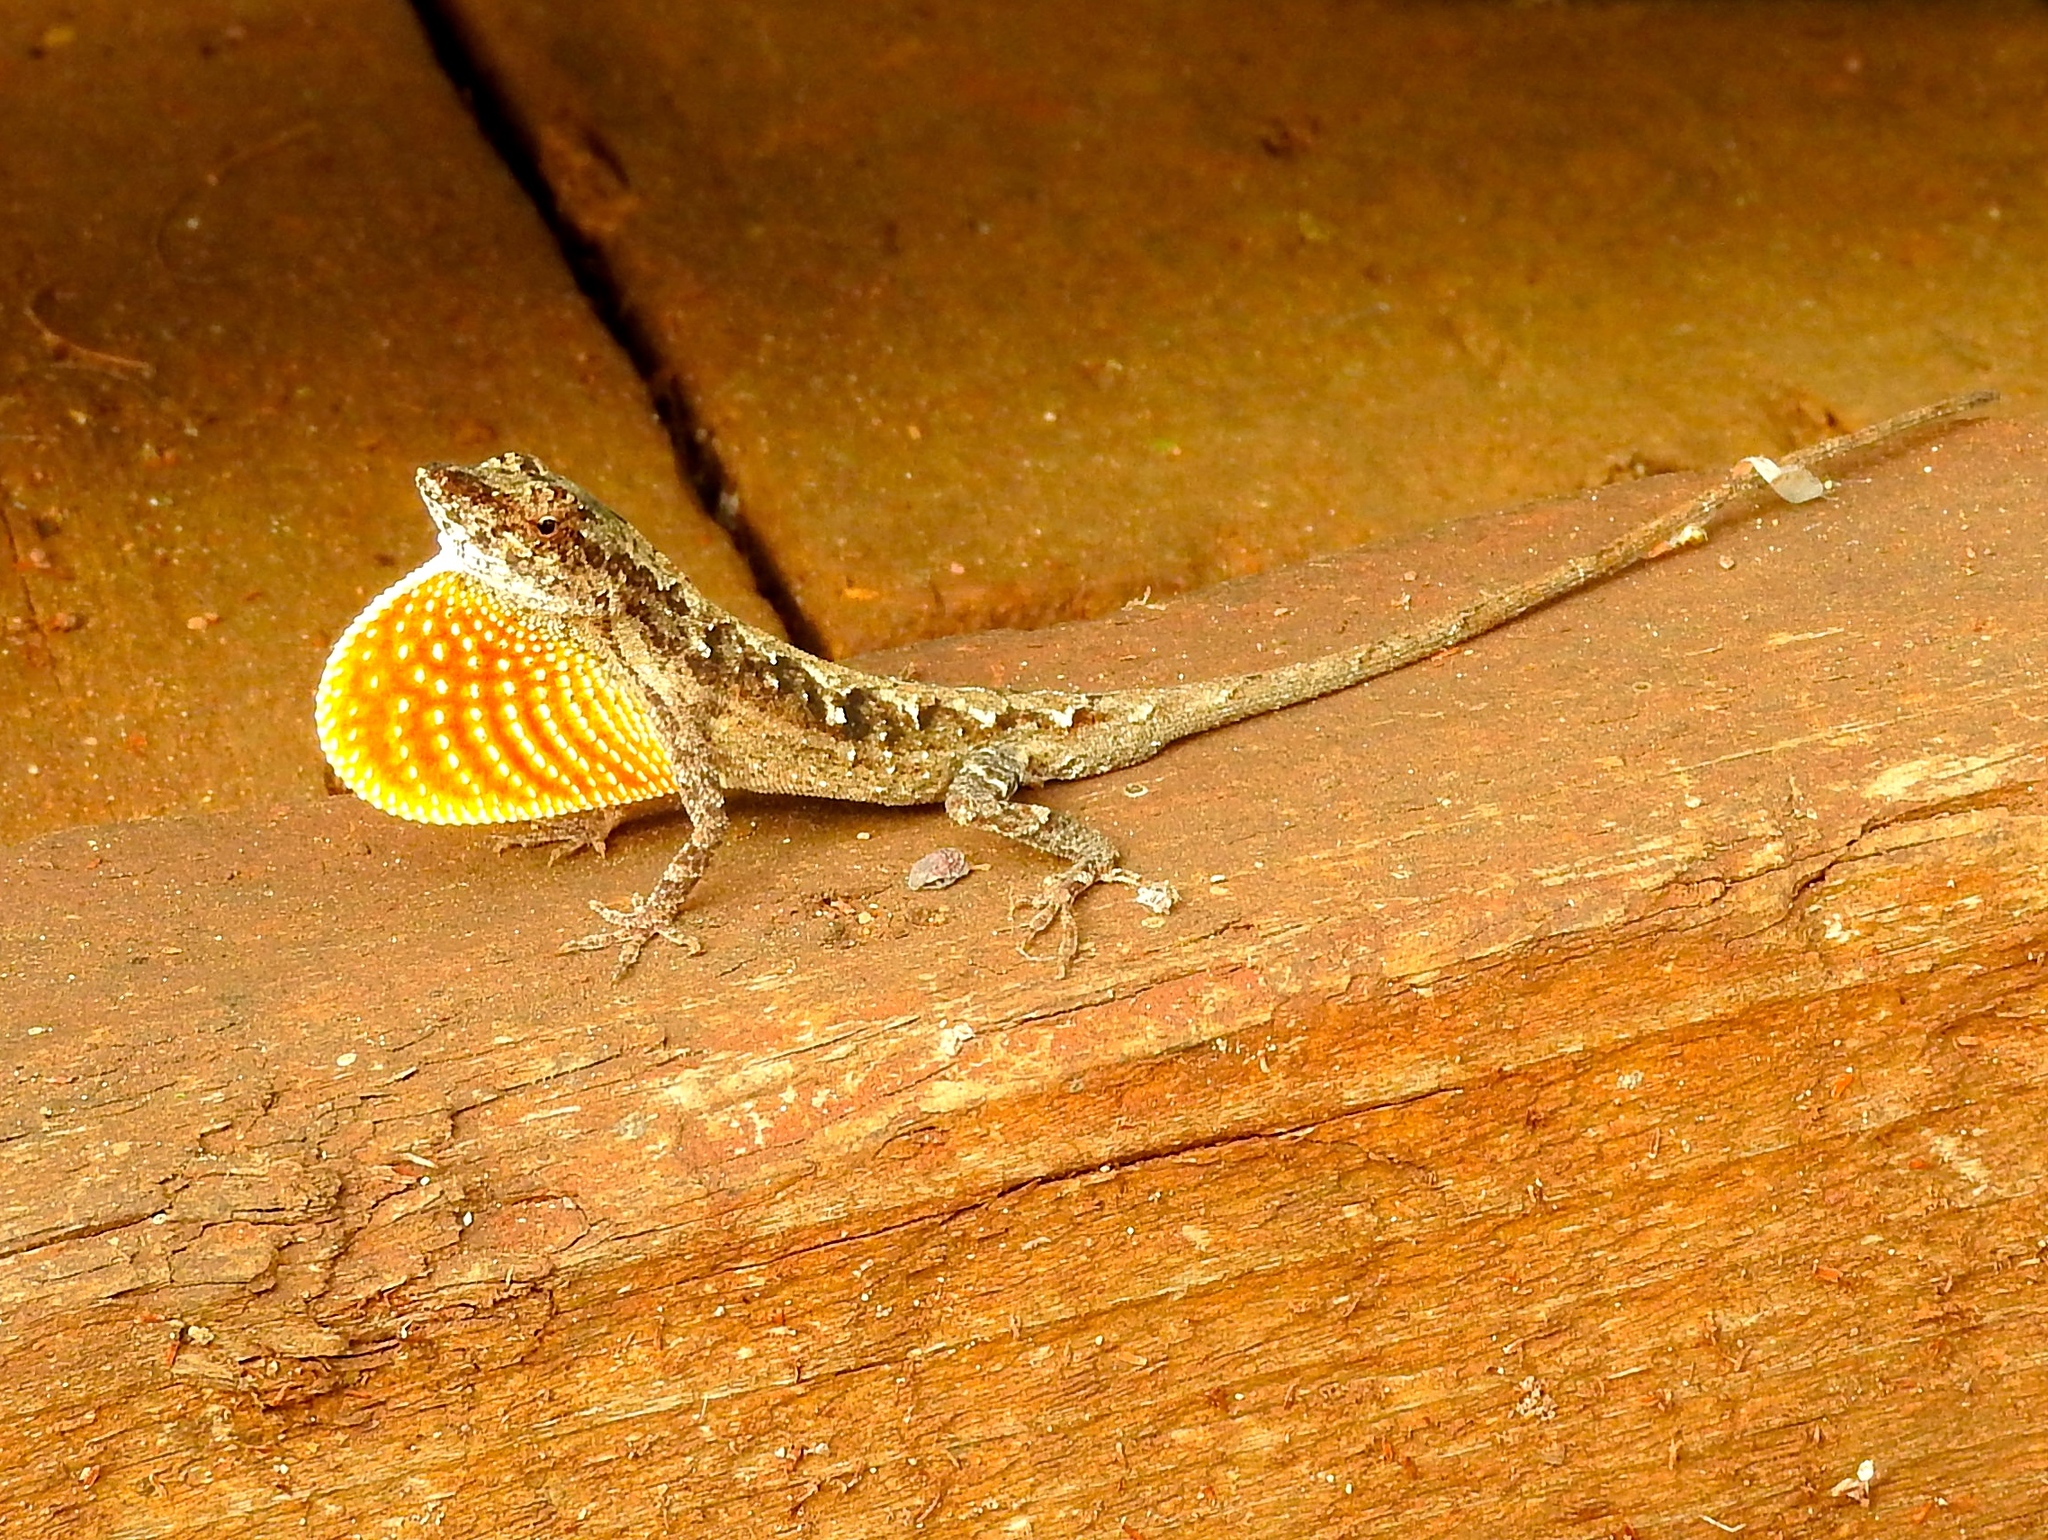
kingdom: Animalia
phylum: Chordata
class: Squamata
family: Dactyloidae
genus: Anolis
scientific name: Anolis nebulosus
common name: Clouded anole
